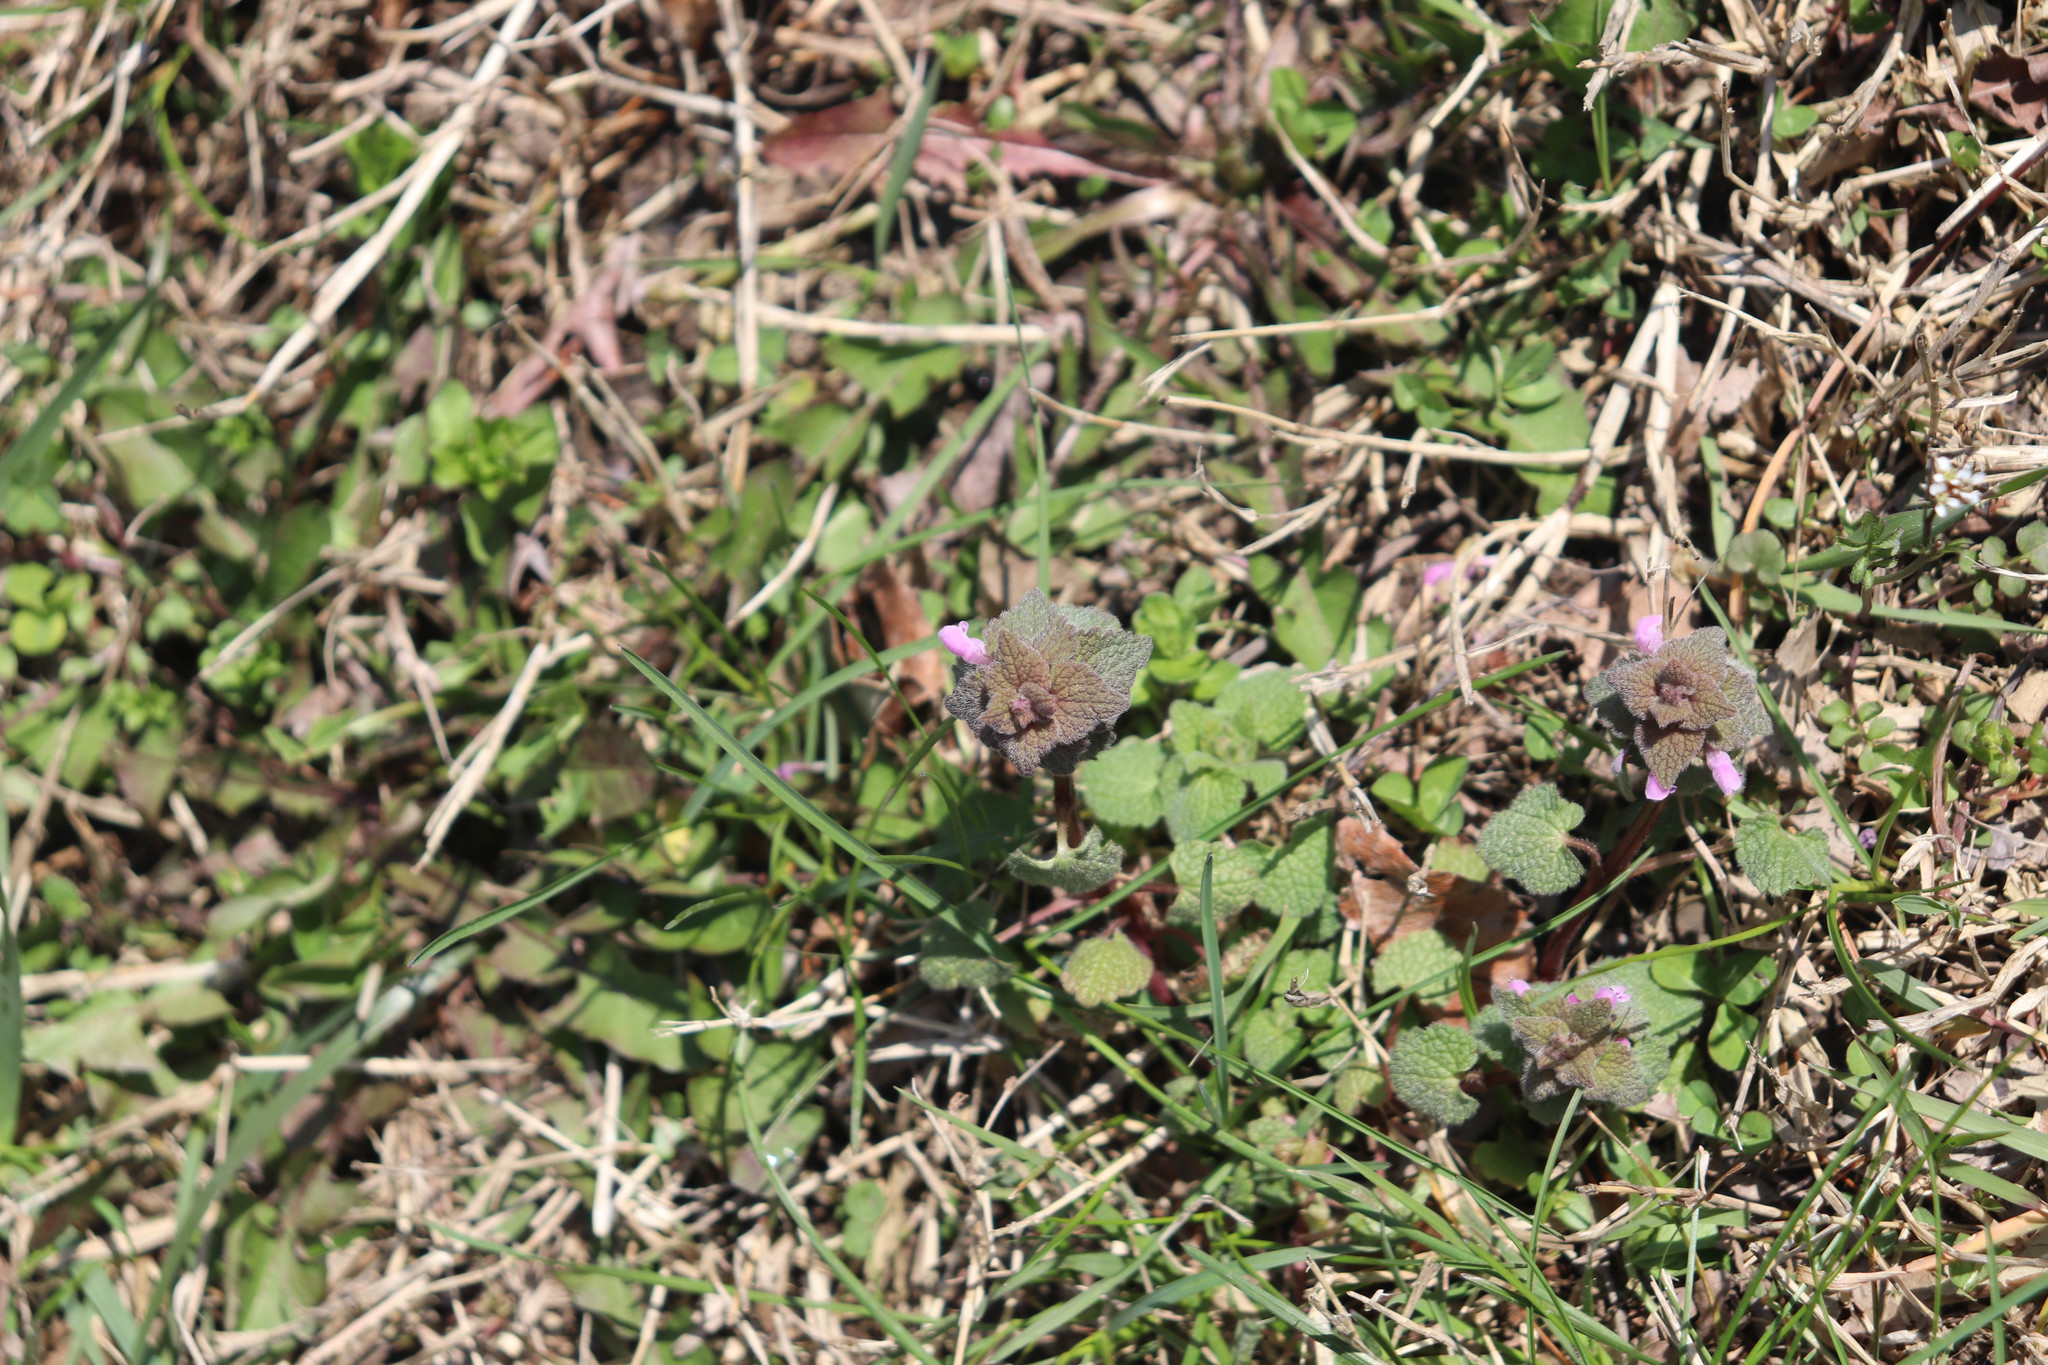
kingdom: Plantae
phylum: Tracheophyta
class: Magnoliopsida
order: Lamiales
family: Lamiaceae
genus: Lamium
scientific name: Lamium purpureum
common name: Red dead-nettle
